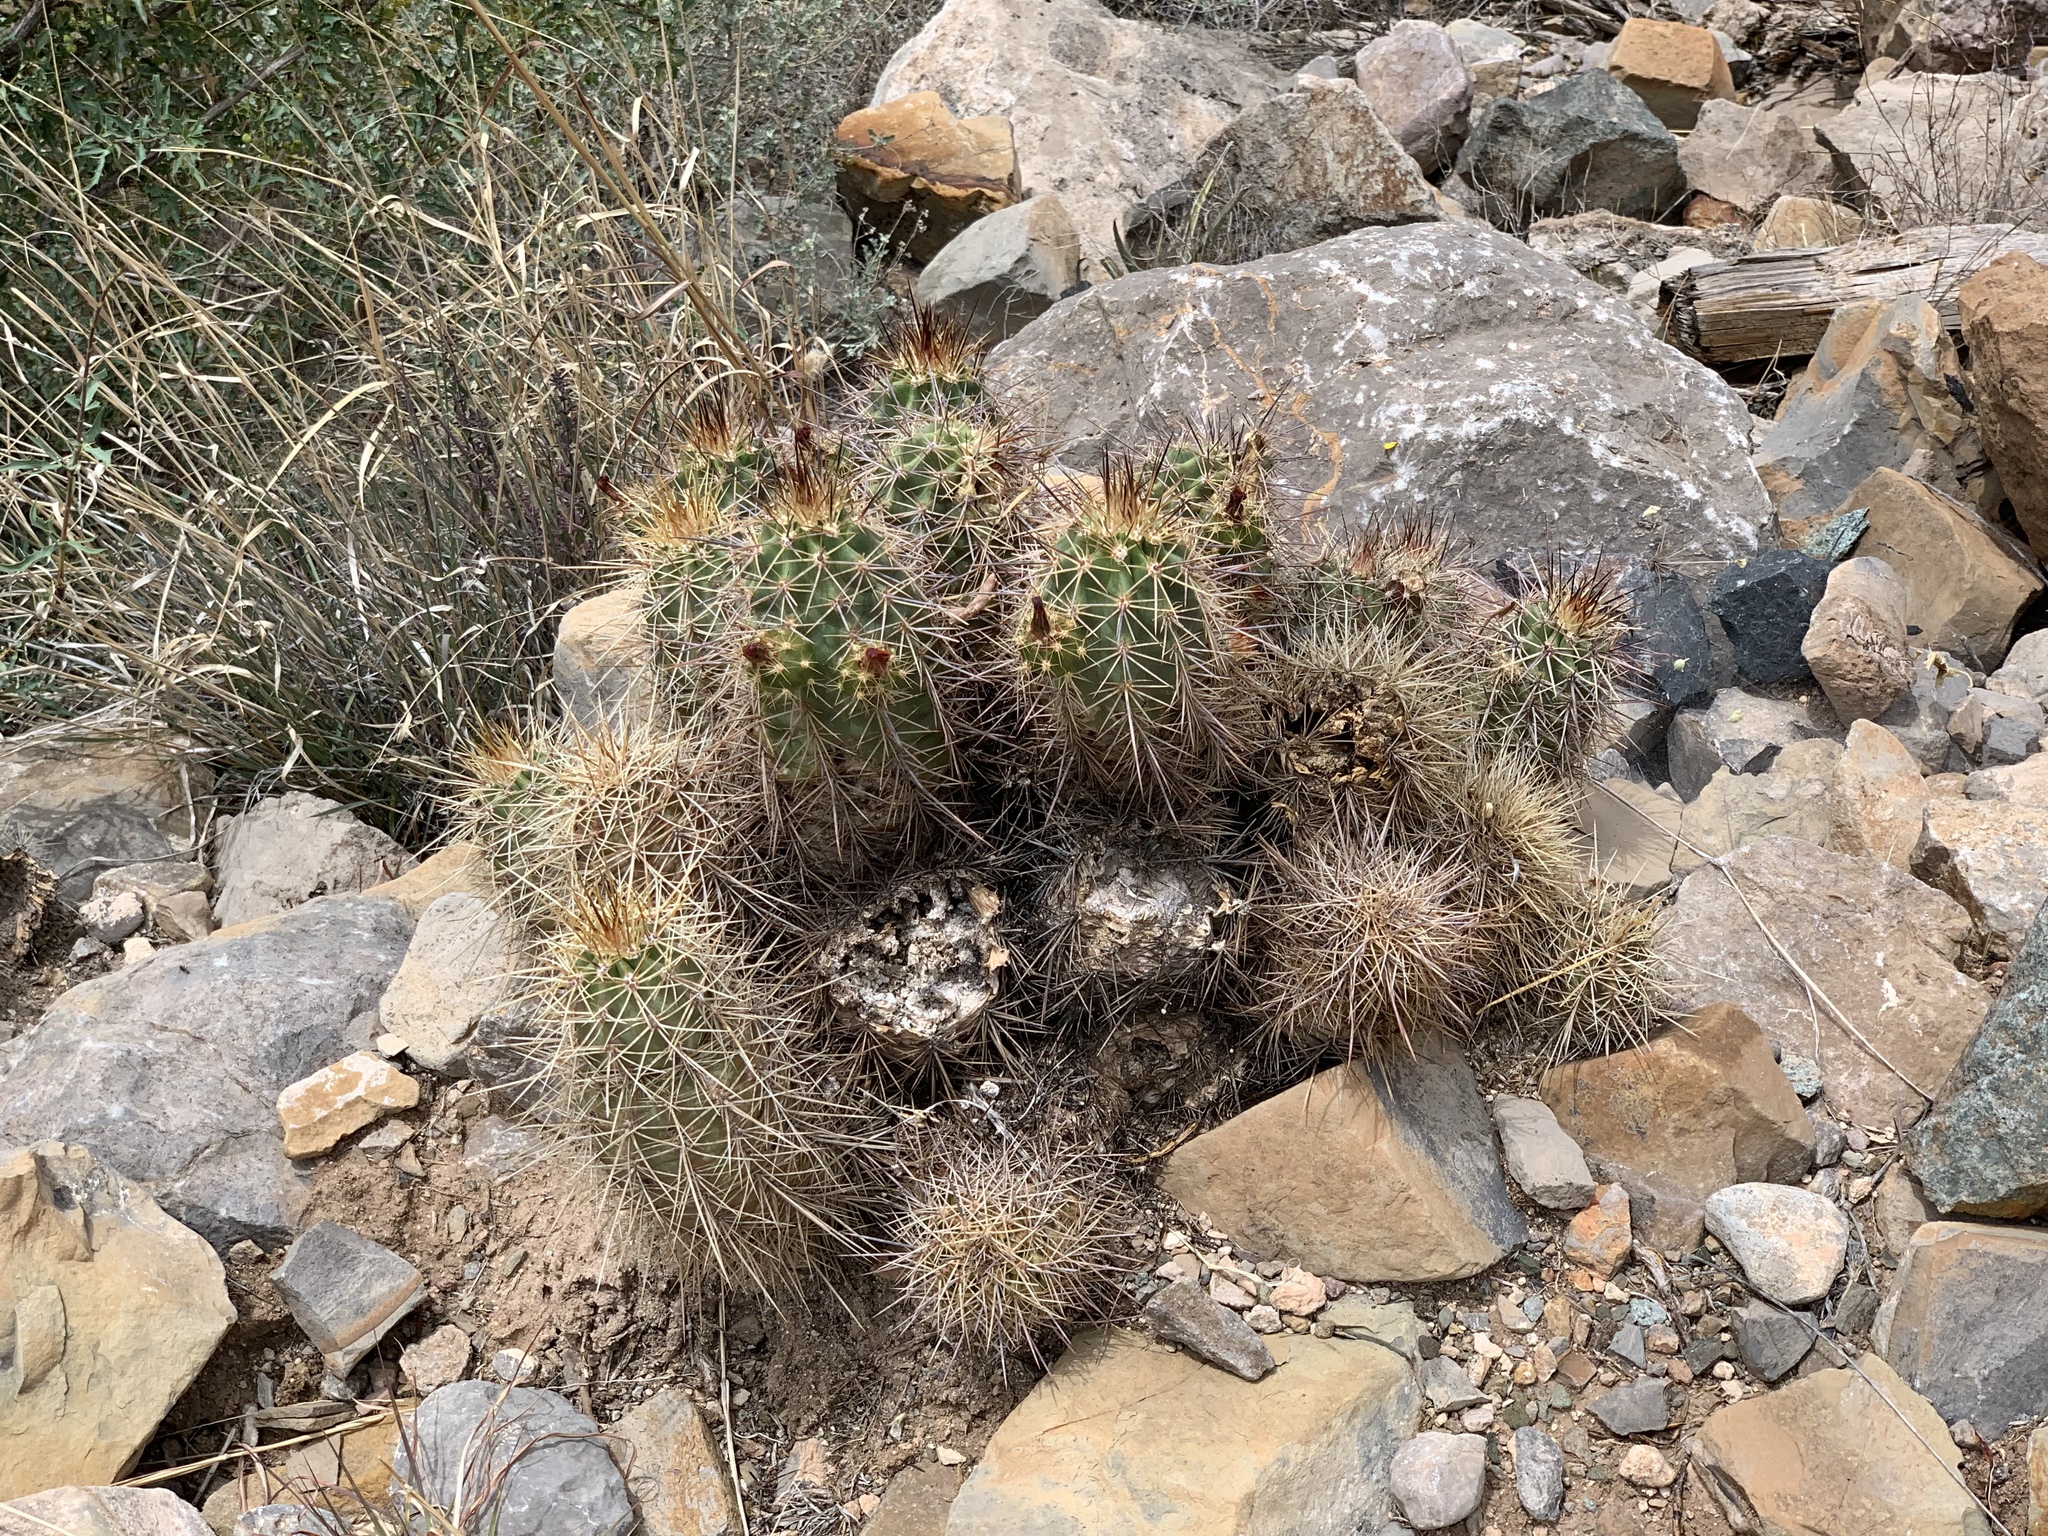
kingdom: Plantae
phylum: Tracheophyta
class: Magnoliopsida
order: Caryophyllales
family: Cactaceae
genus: Echinocereus
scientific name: Echinocereus coccineus
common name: Scarlet hedgehog cactus
